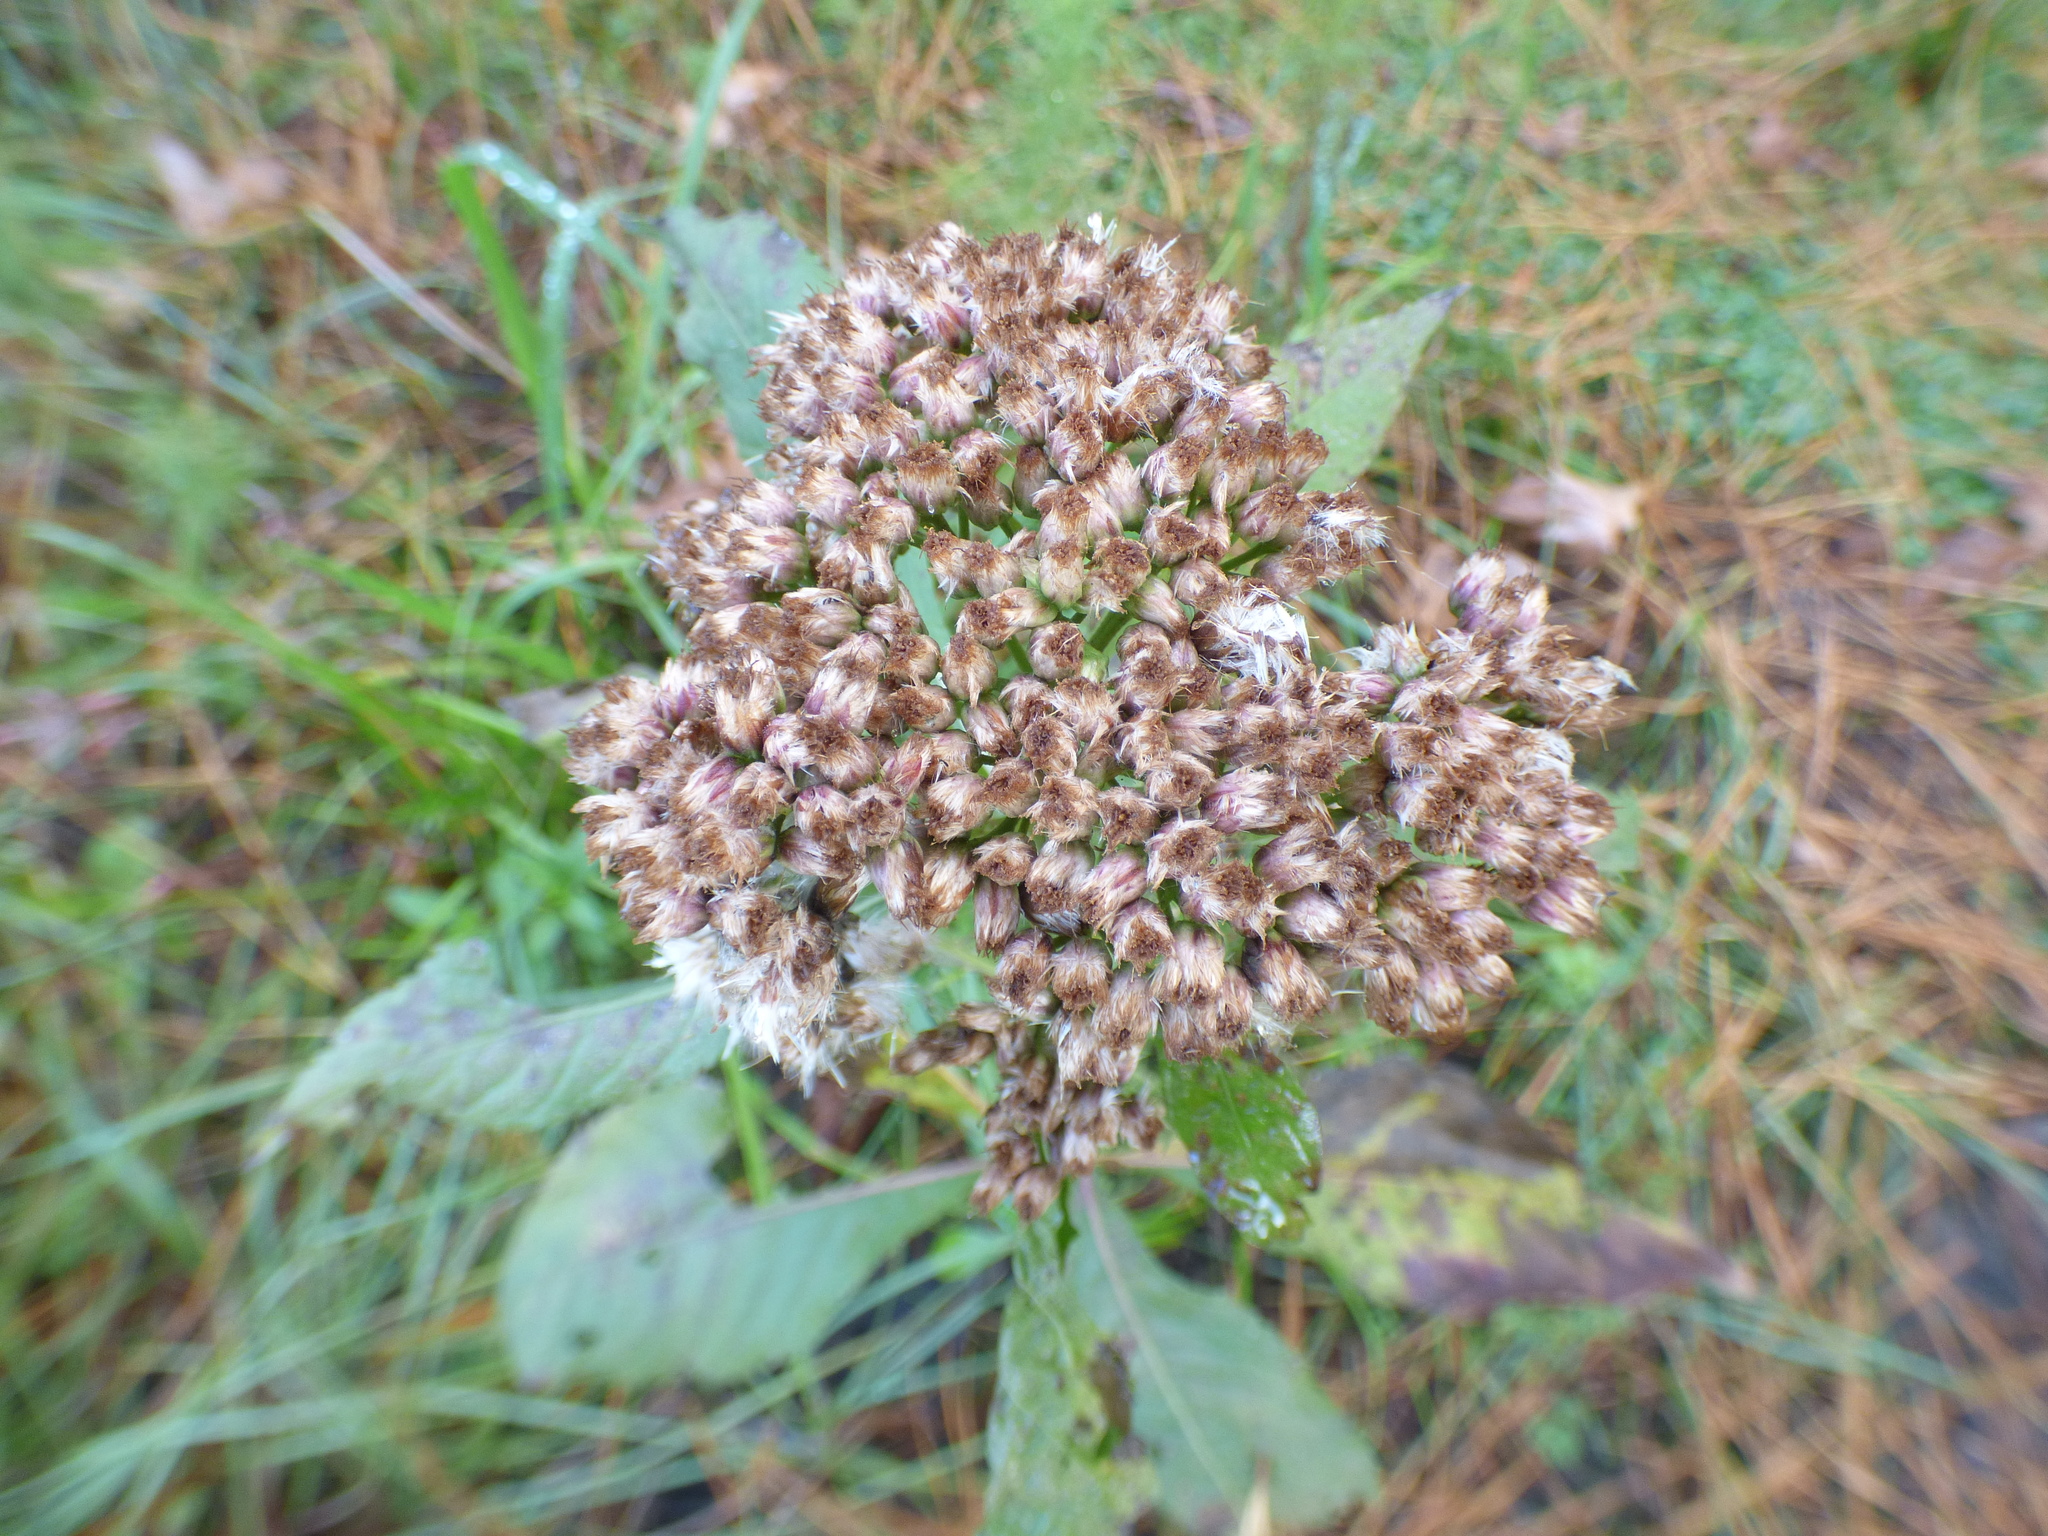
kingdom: Plantae
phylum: Tracheophyta
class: Magnoliopsida
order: Asterales
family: Asteraceae
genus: Pluchea
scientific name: Pluchea camphorata
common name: Camphor pluchea
